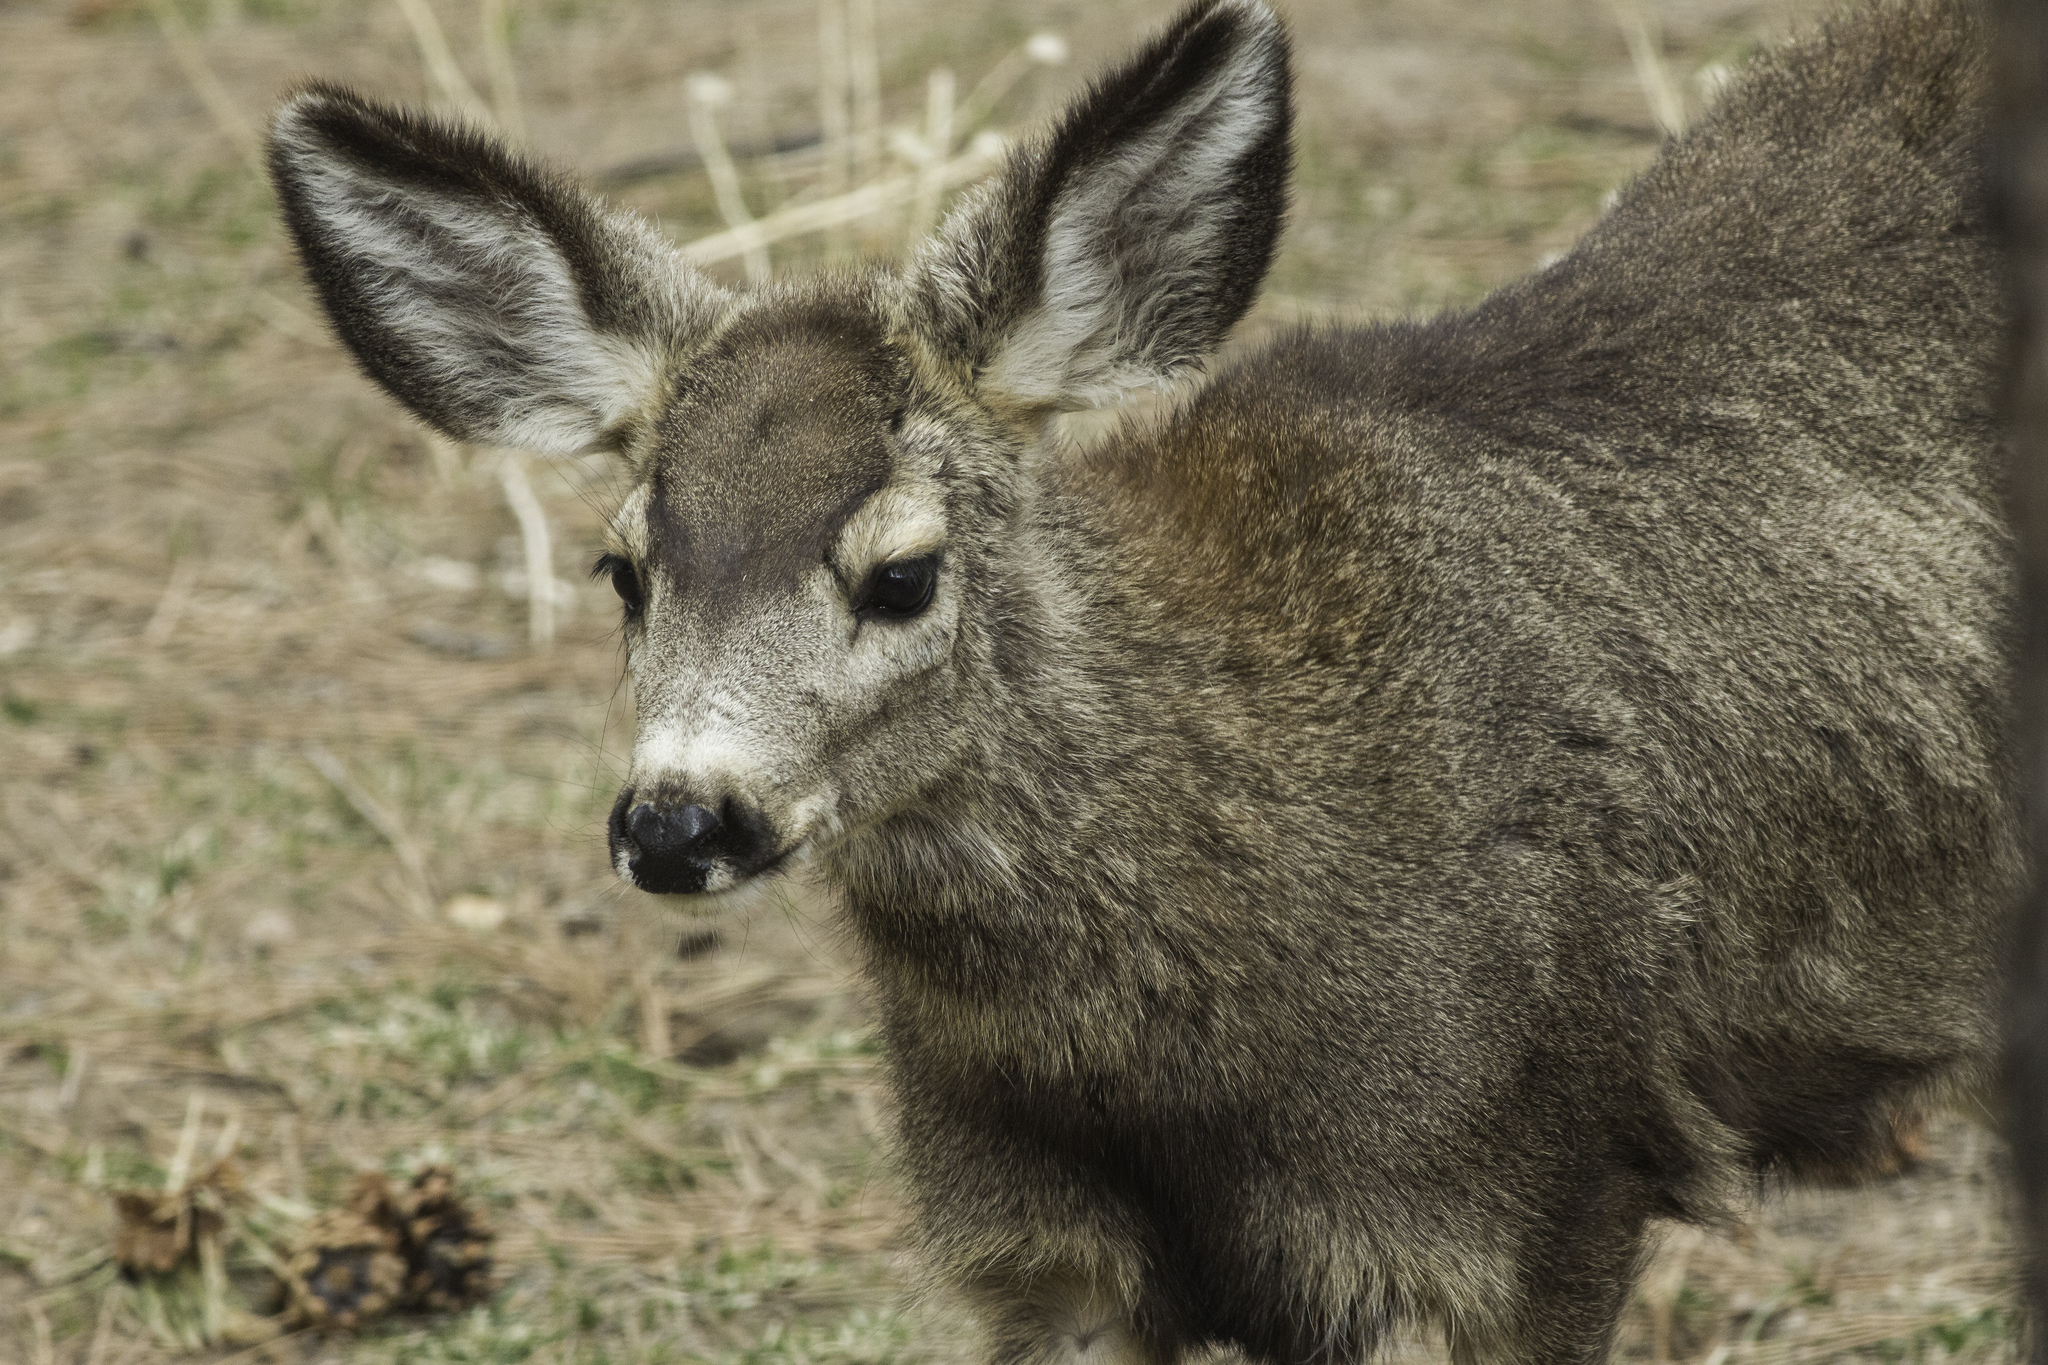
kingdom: Animalia
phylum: Chordata
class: Mammalia
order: Artiodactyla
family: Cervidae
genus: Odocoileus
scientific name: Odocoileus hemionus
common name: Mule deer
